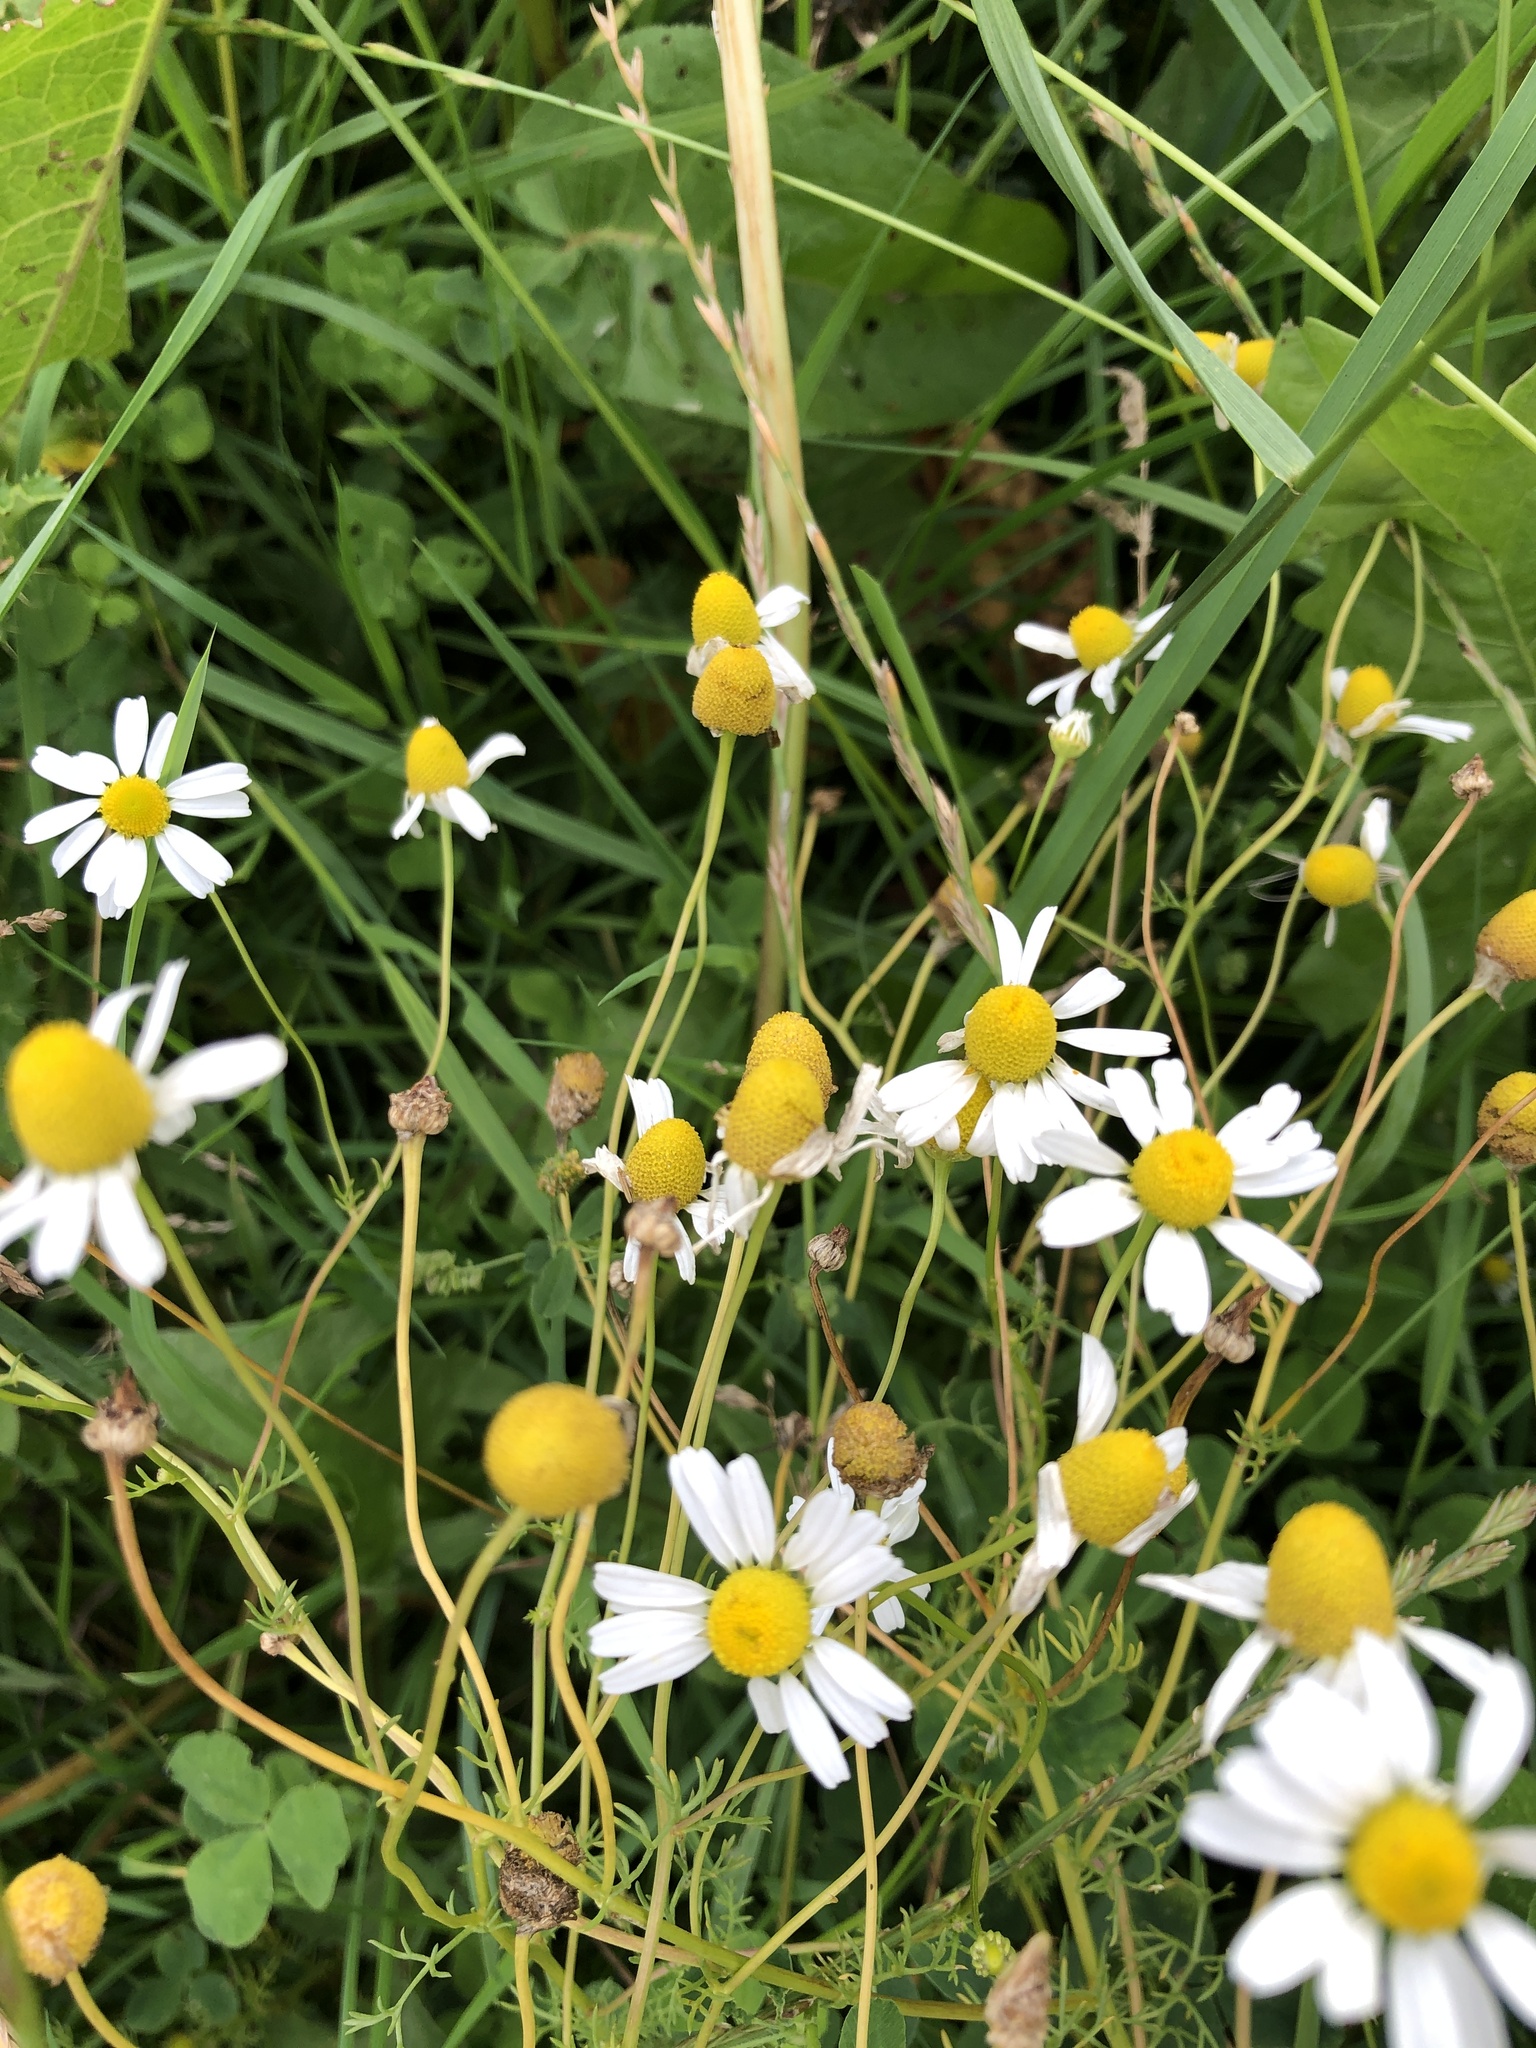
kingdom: Plantae
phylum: Tracheophyta
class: Magnoliopsida
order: Asterales
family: Asteraceae
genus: Matricaria
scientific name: Matricaria chamomilla
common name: Scented mayweed
